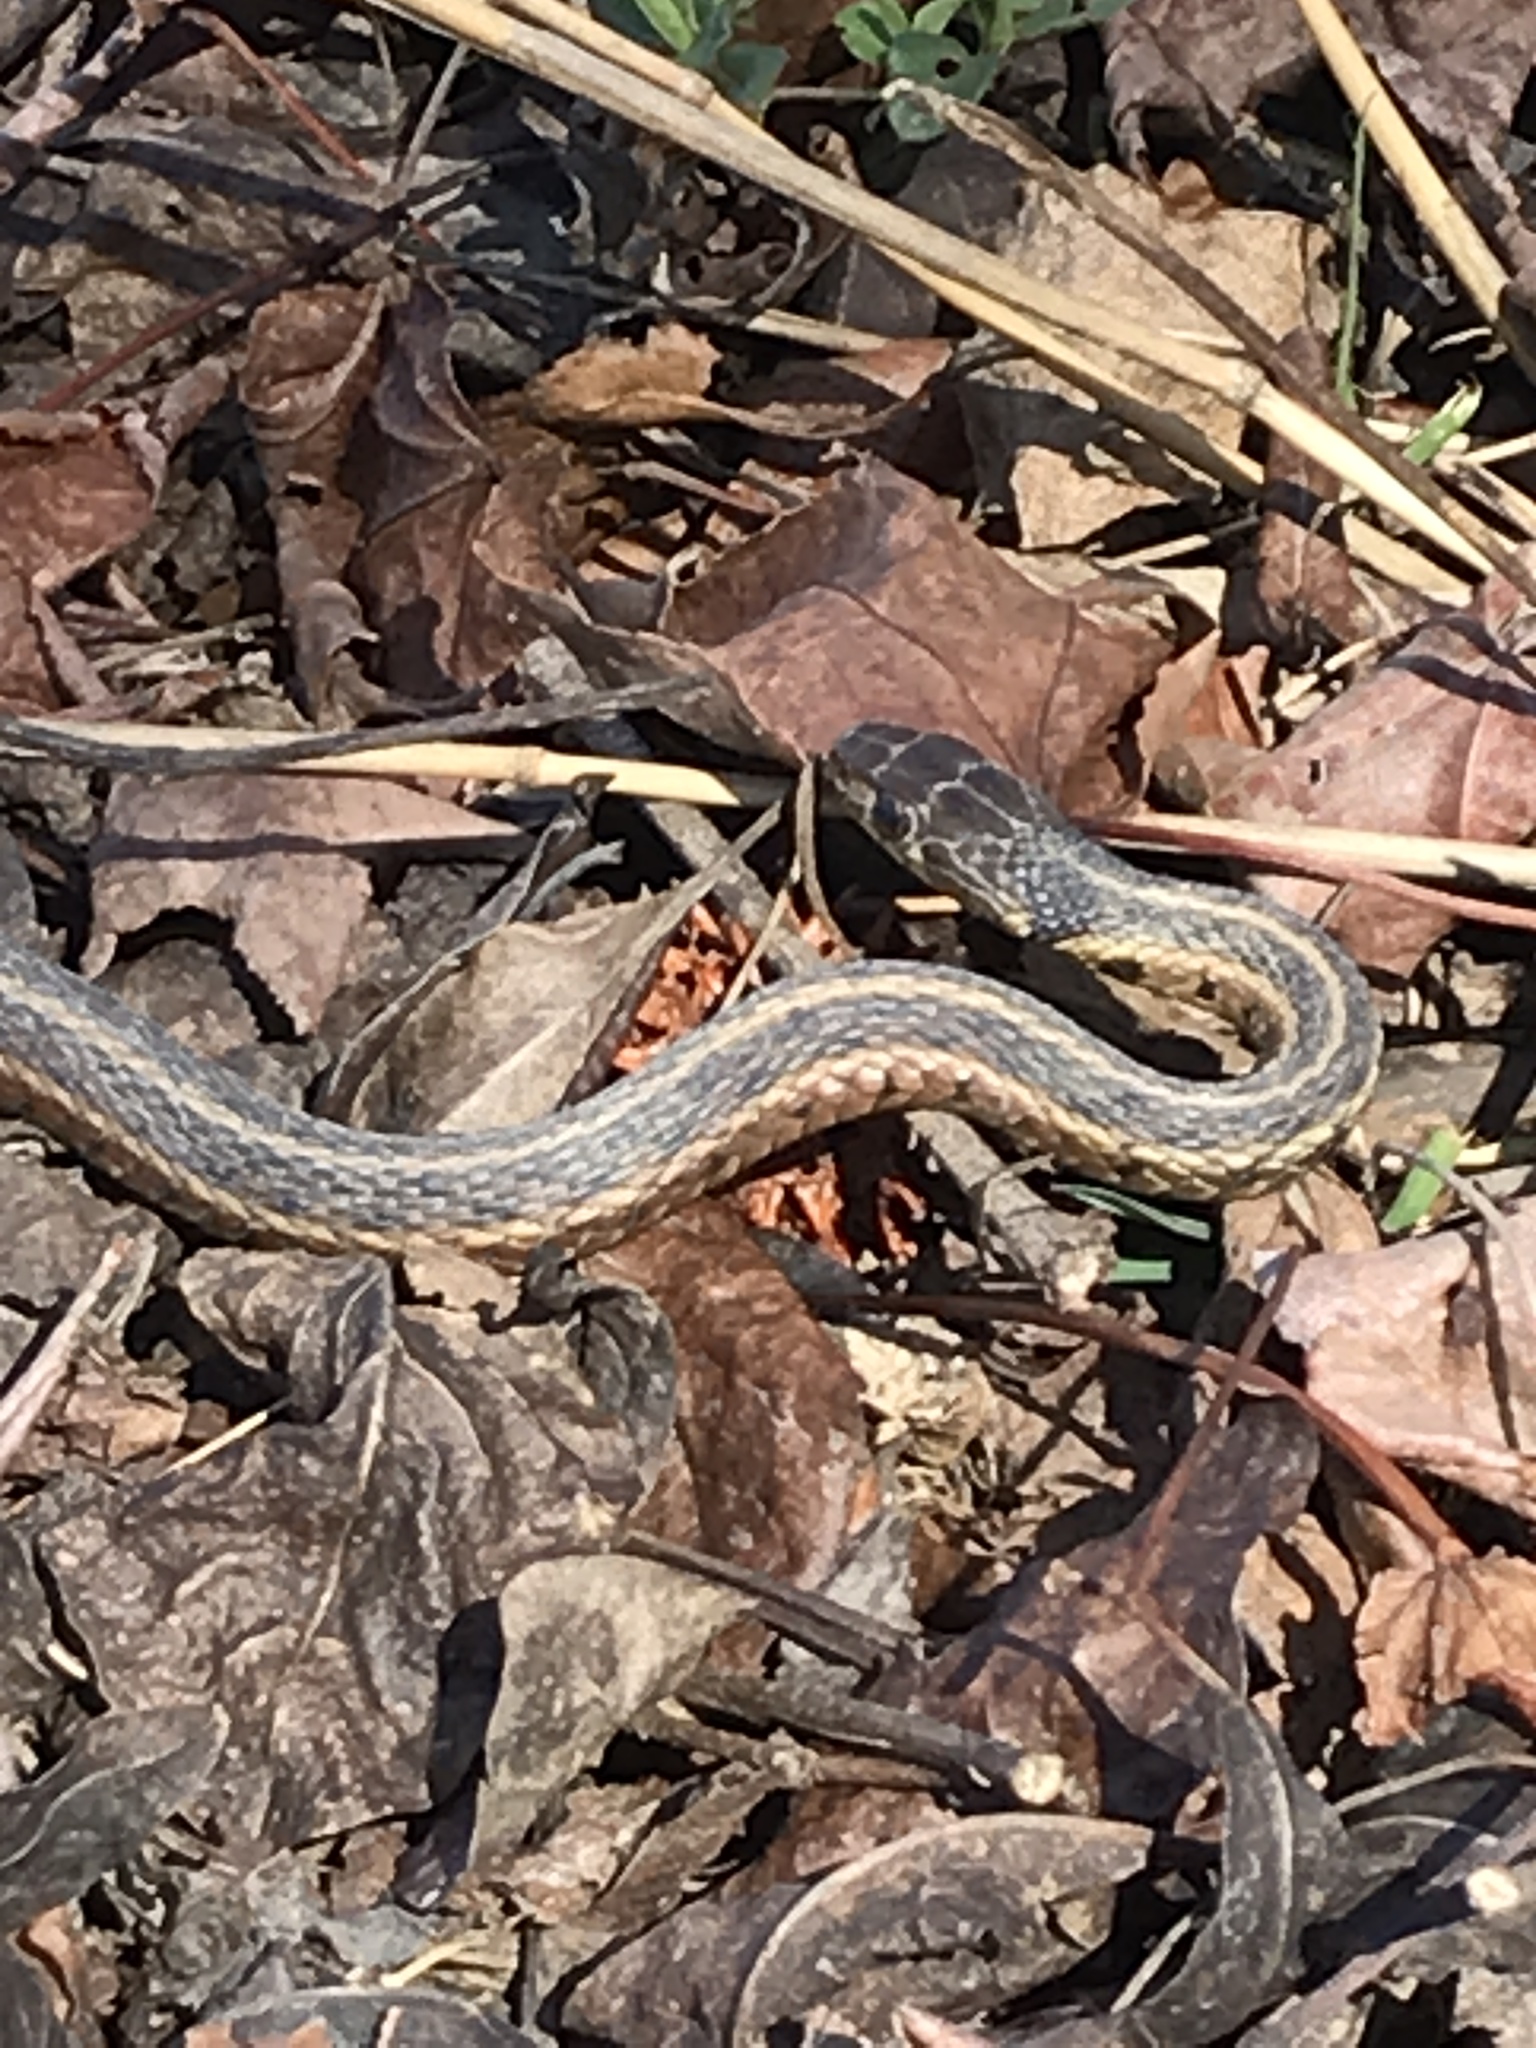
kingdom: Animalia
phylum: Chordata
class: Squamata
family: Colubridae
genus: Thamnophis
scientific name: Thamnophis sirtalis
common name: Common garter snake
